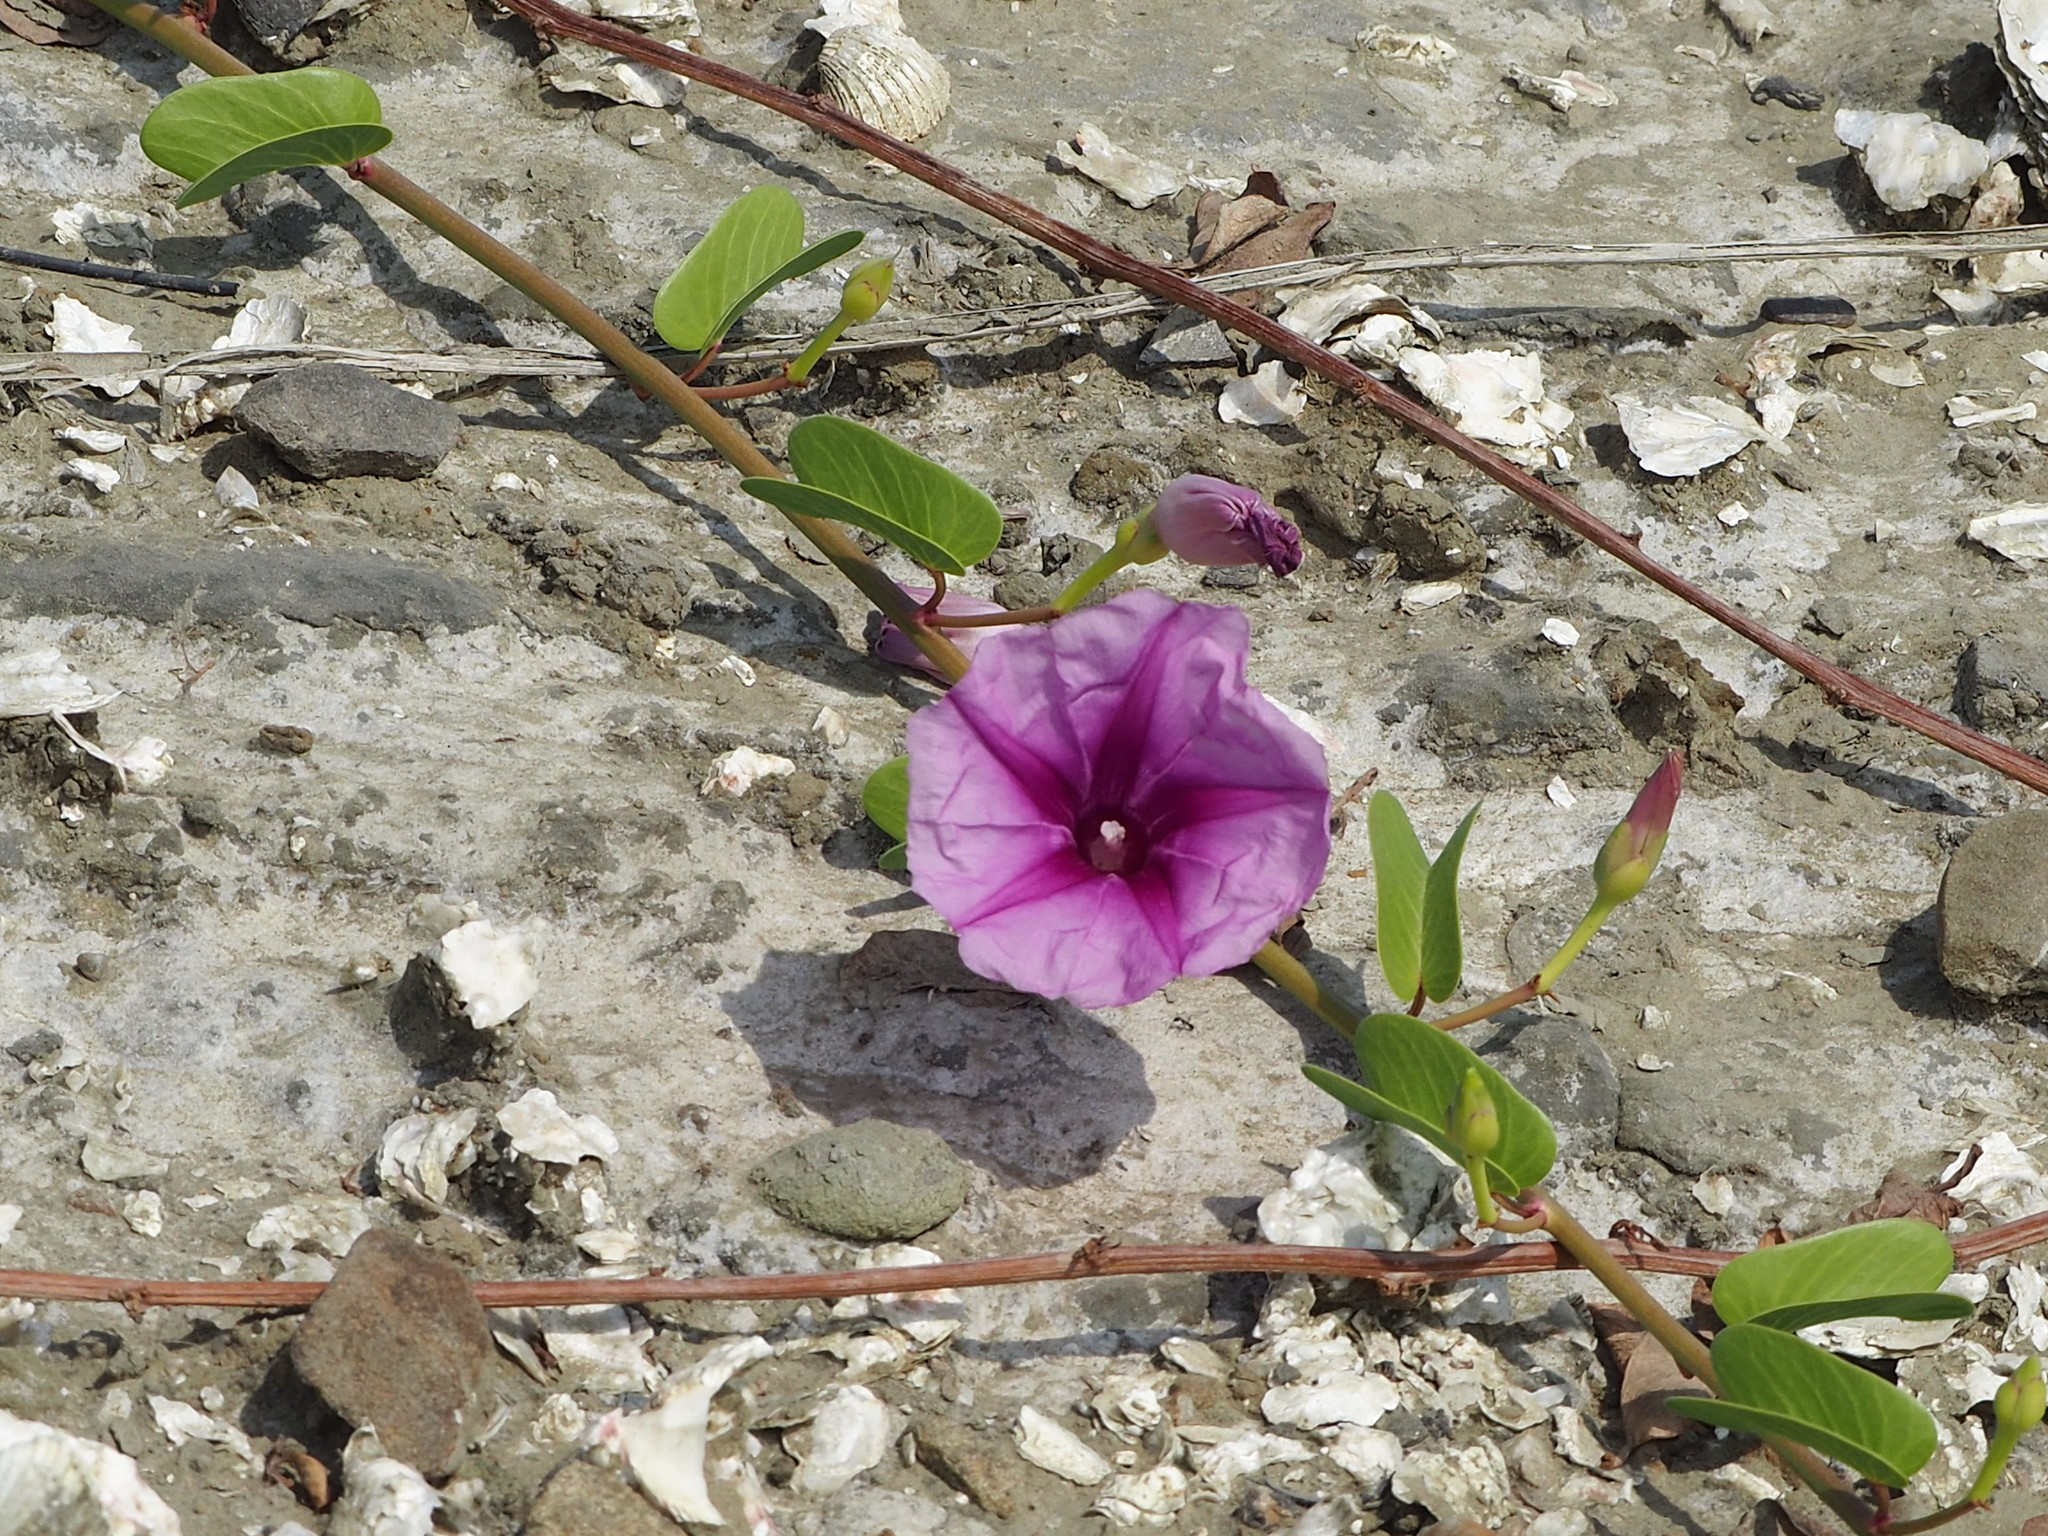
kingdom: Plantae
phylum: Tracheophyta
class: Magnoliopsida
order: Solanales
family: Convolvulaceae
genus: Ipomoea
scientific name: Ipomoea pes-caprae
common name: Beach morning glory
